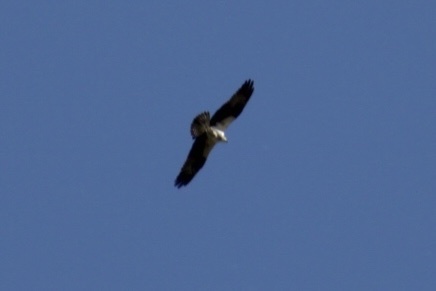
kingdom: Animalia
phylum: Chordata
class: Aves
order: Accipitriformes
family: Pandionidae
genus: Pandion
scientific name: Pandion haliaetus
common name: Osprey
